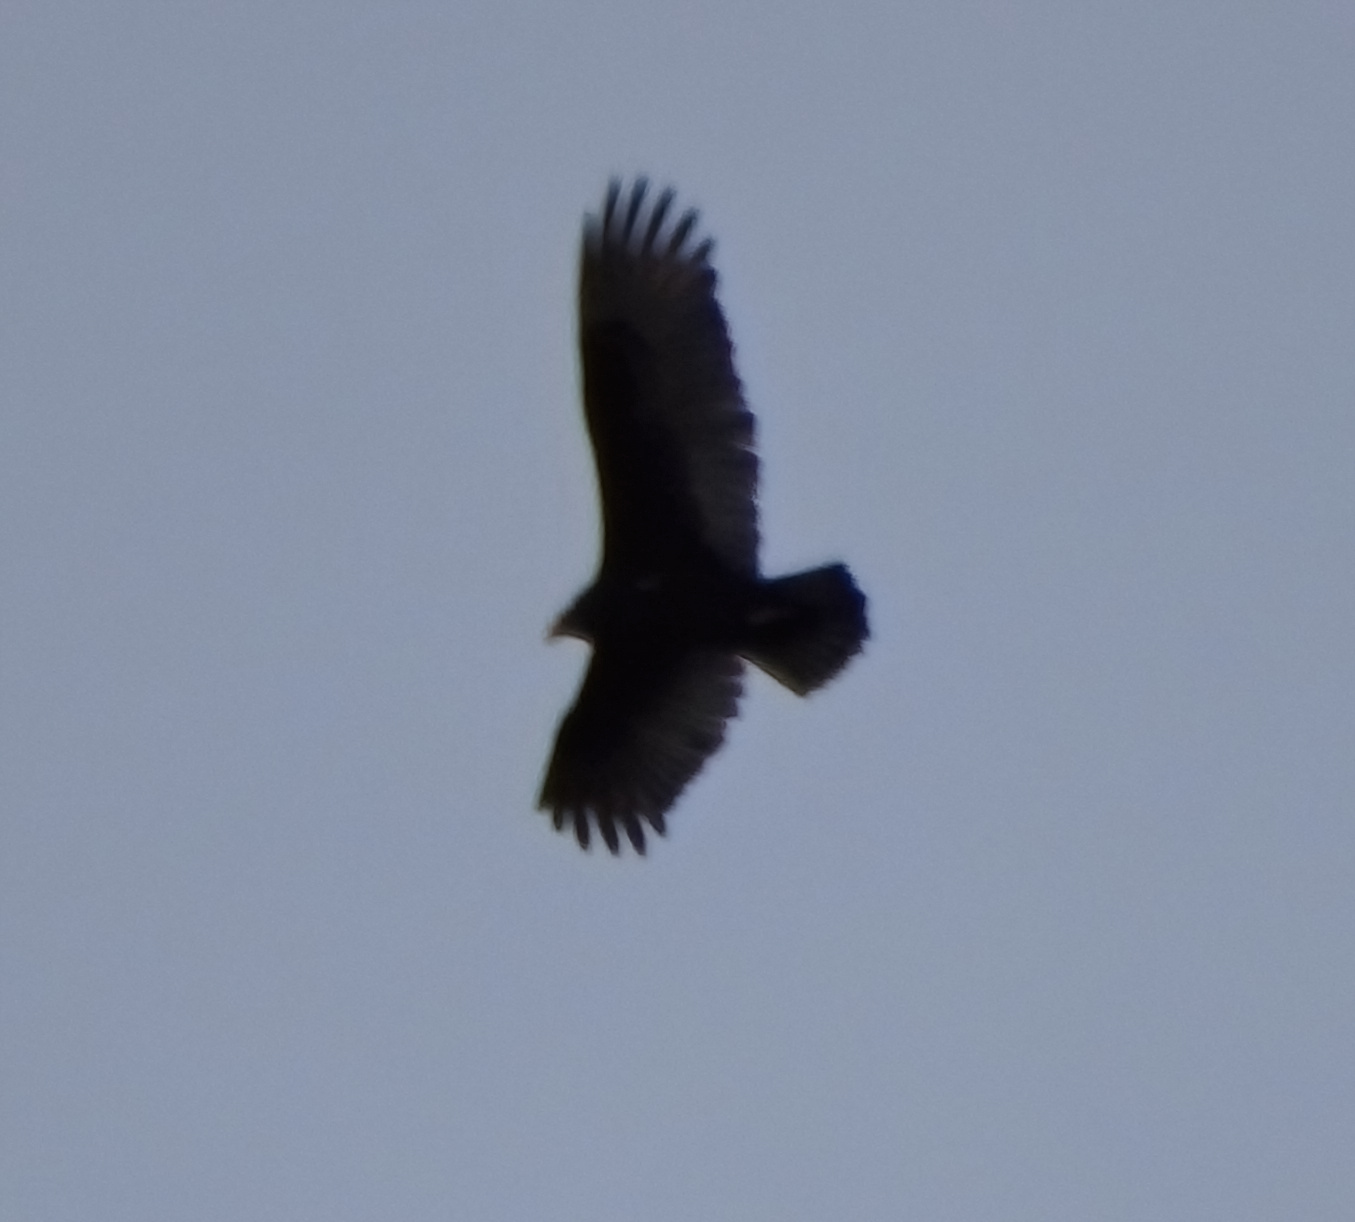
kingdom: Animalia
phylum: Chordata
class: Aves
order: Accipitriformes
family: Cathartidae
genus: Cathartes
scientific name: Cathartes aura
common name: Turkey vulture
